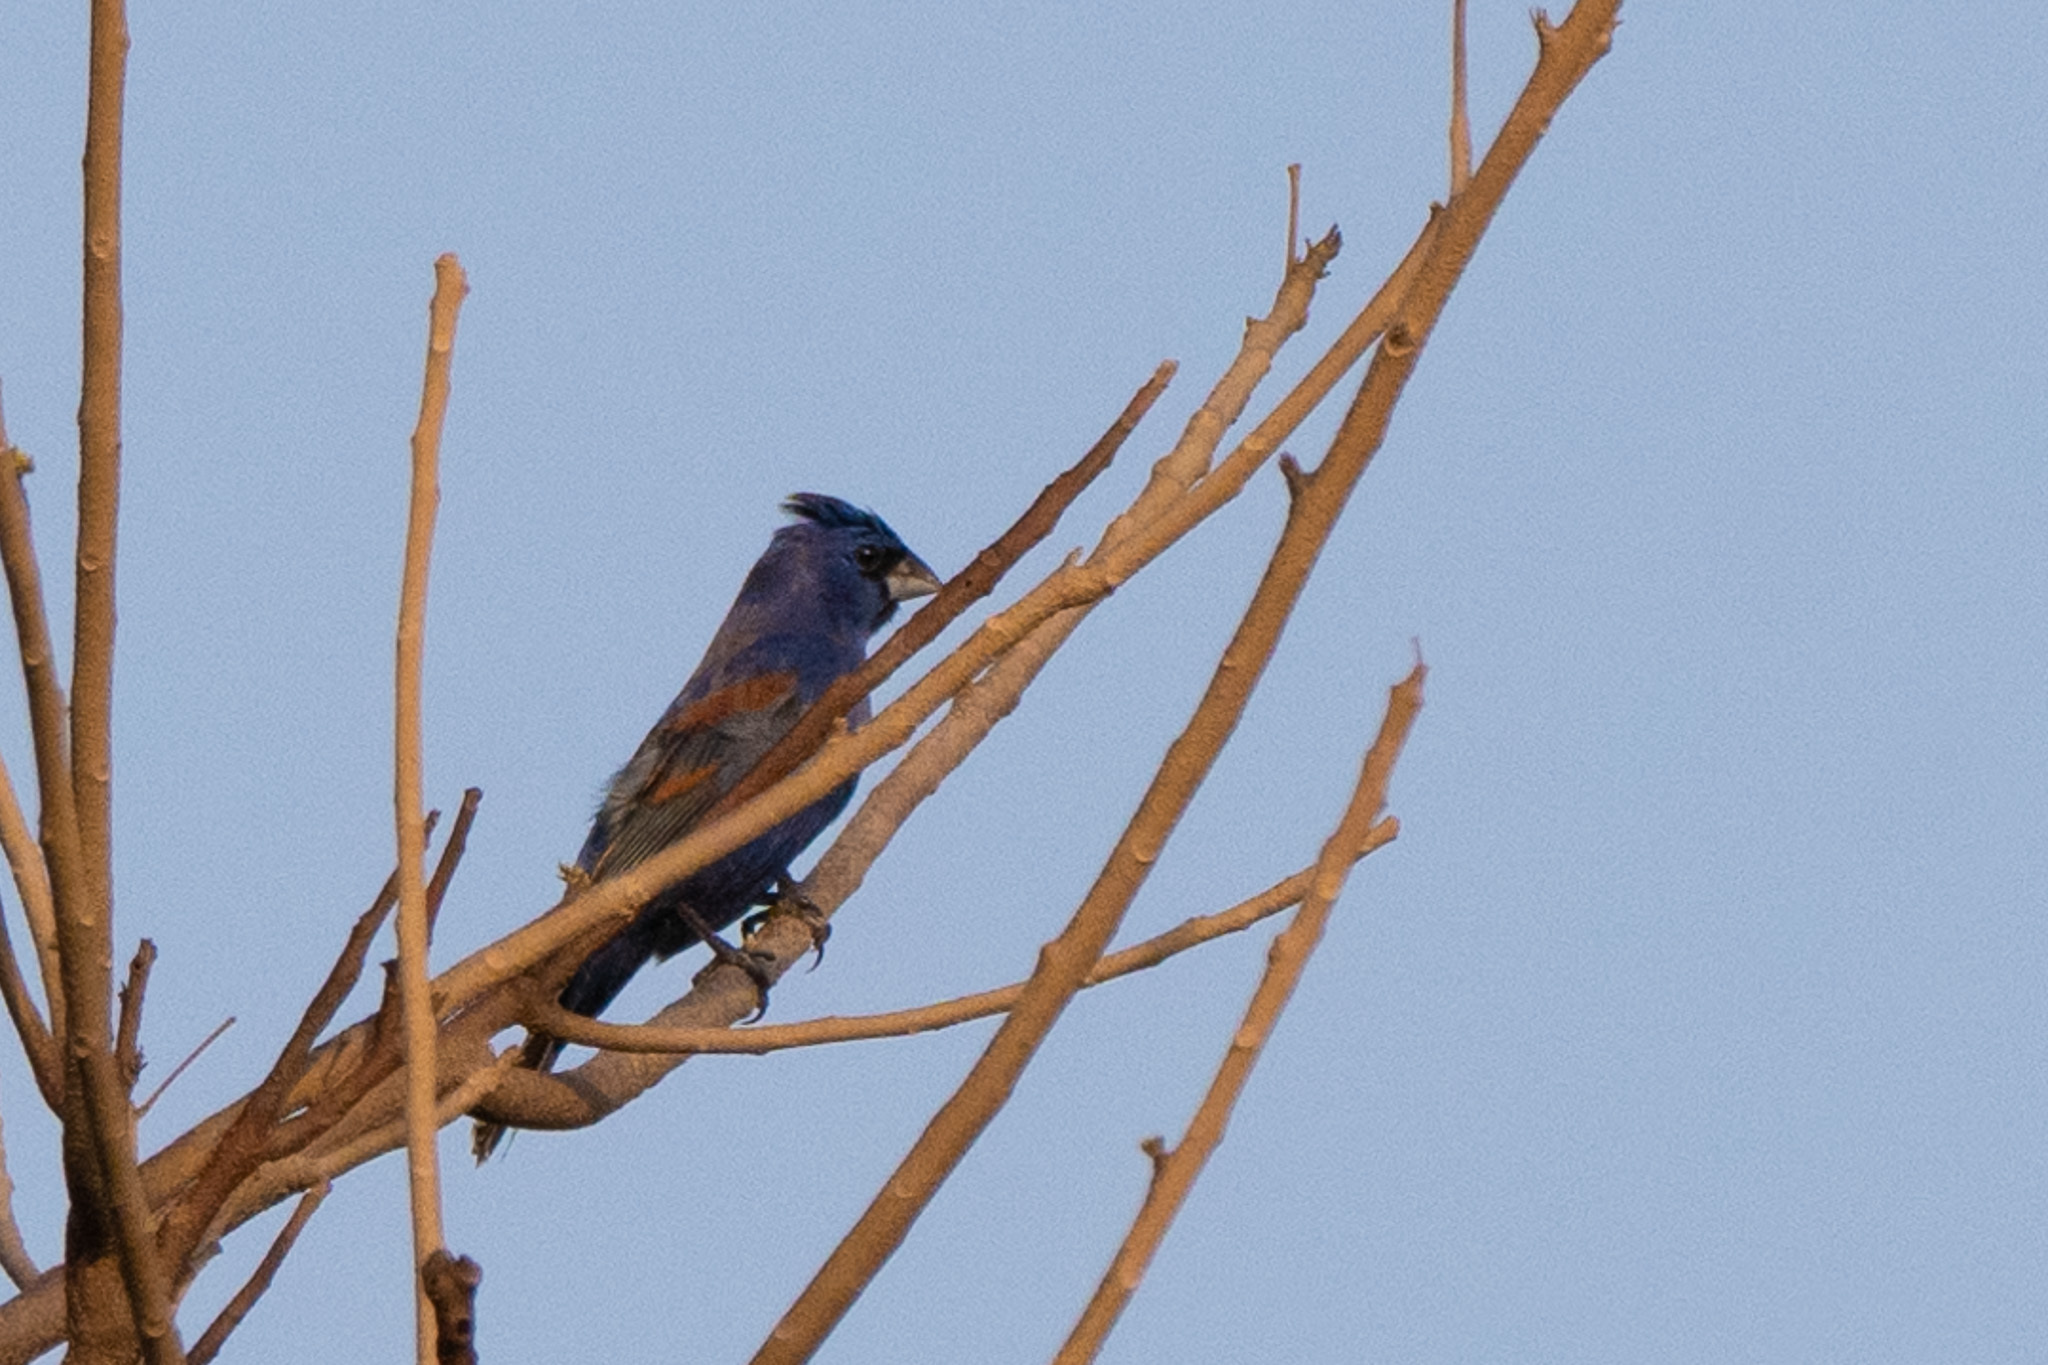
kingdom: Animalia
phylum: Chordata
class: Aves
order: Passeriformes
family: Cardinalidae
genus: Passerina
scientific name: Passerina caerulea
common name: Blue grosbeak
